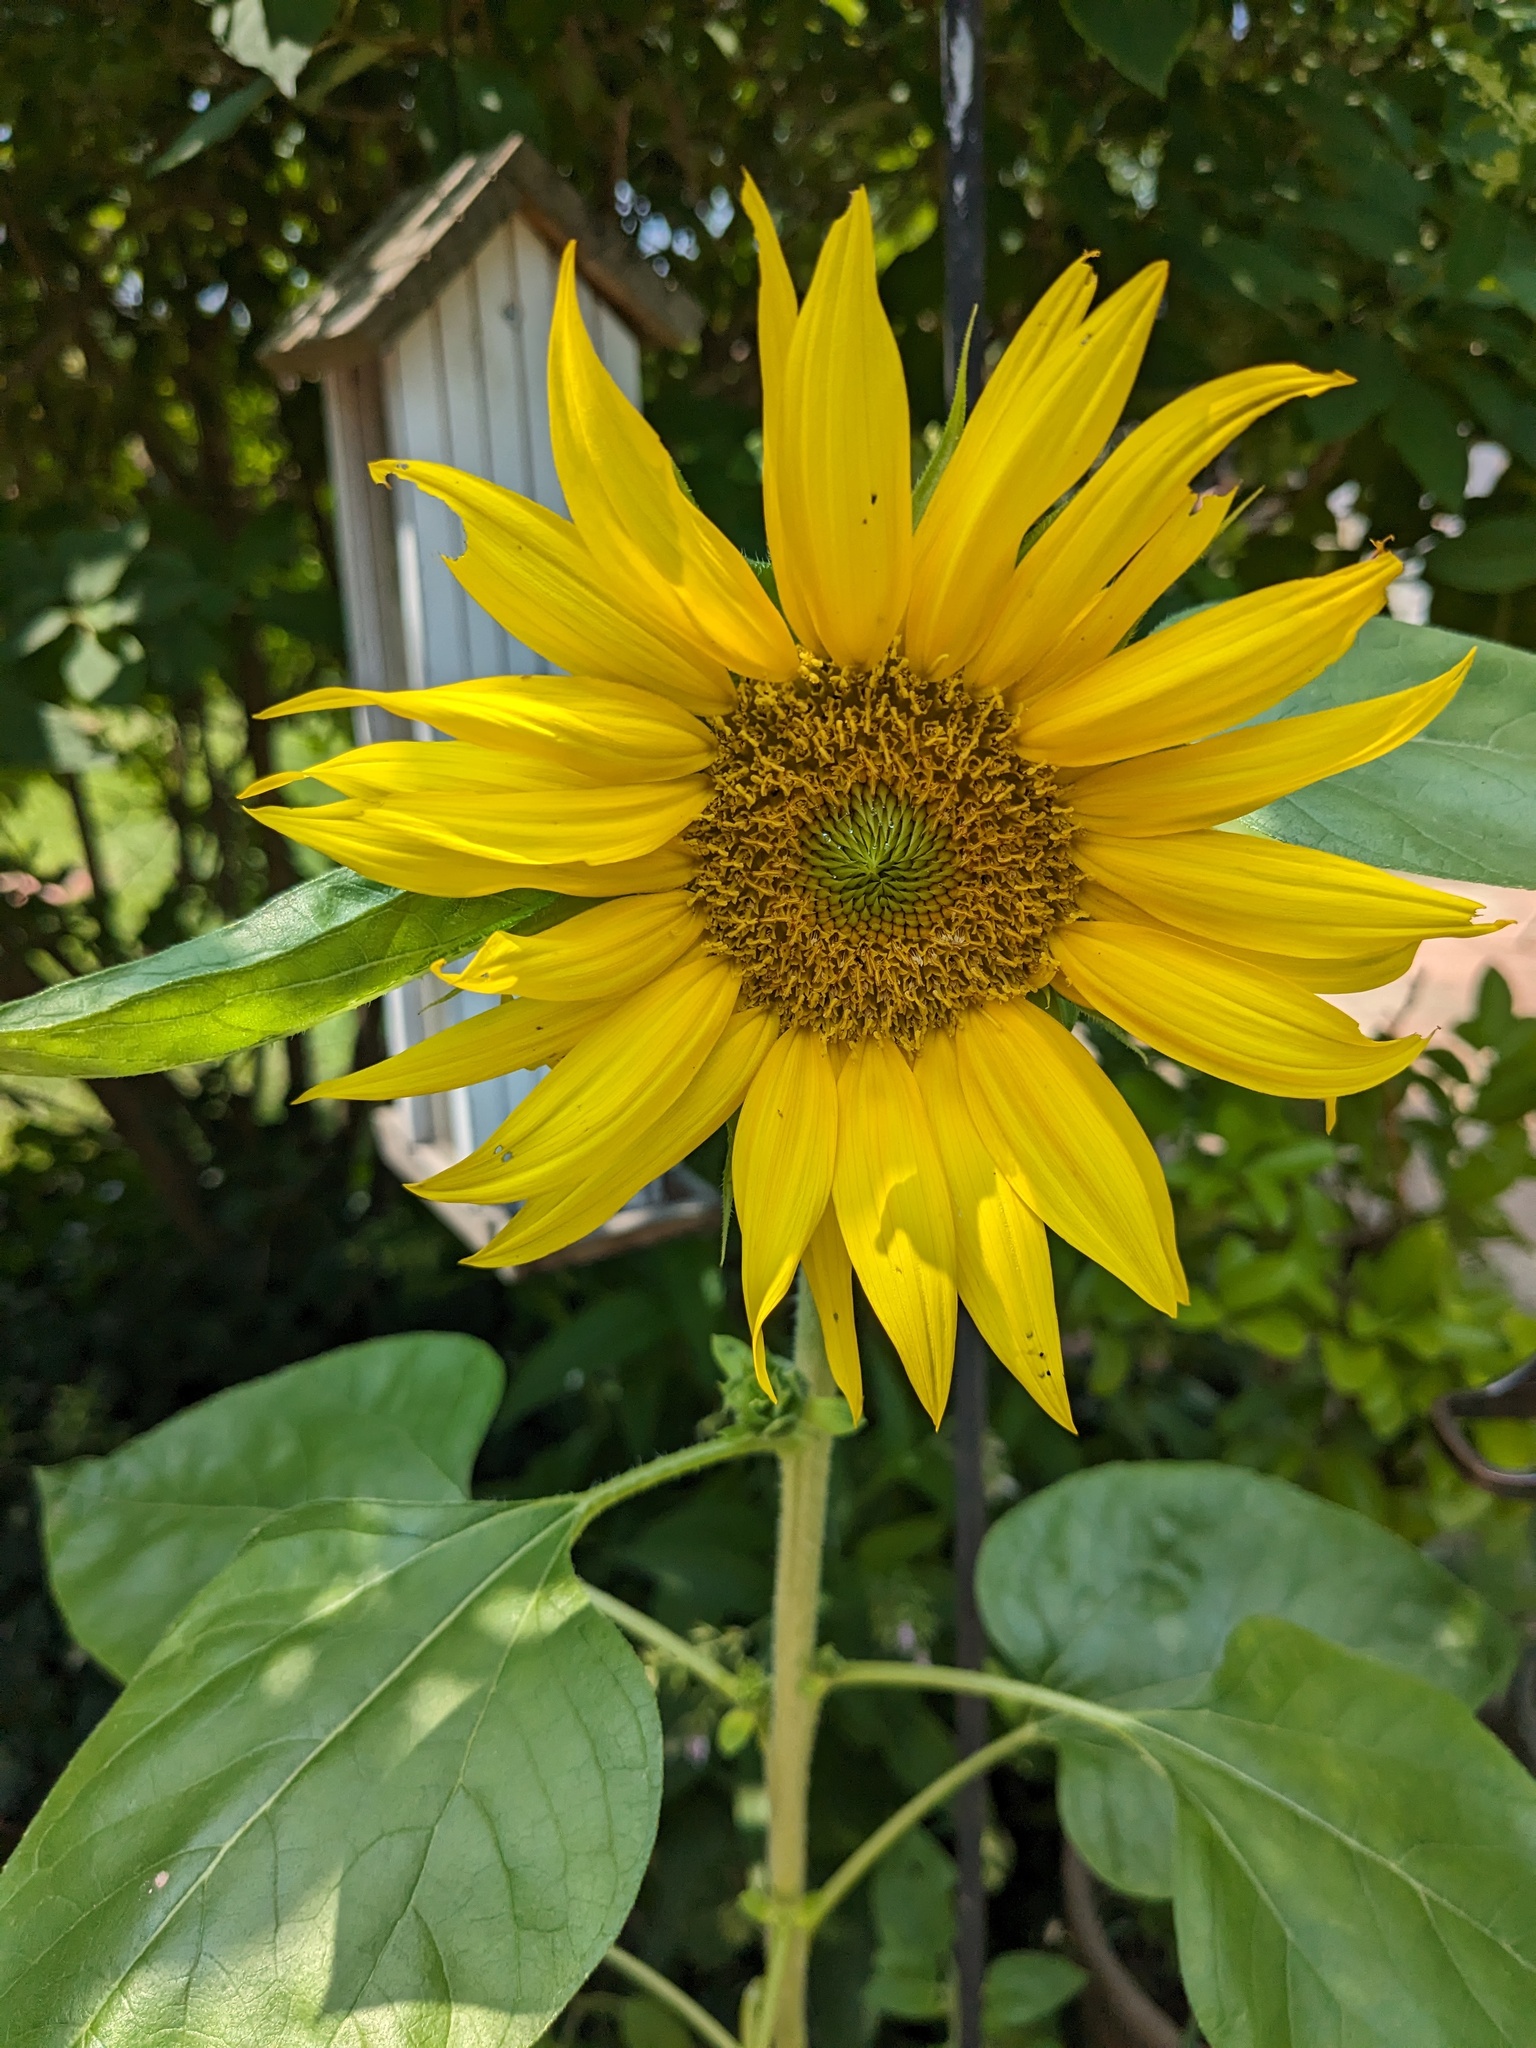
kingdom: Plantae
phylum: Tracheophyta
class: Magnoliopsida
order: Asterales
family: Asteraceae
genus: Helianthus
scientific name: Helianthus annuus
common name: Sunflower
